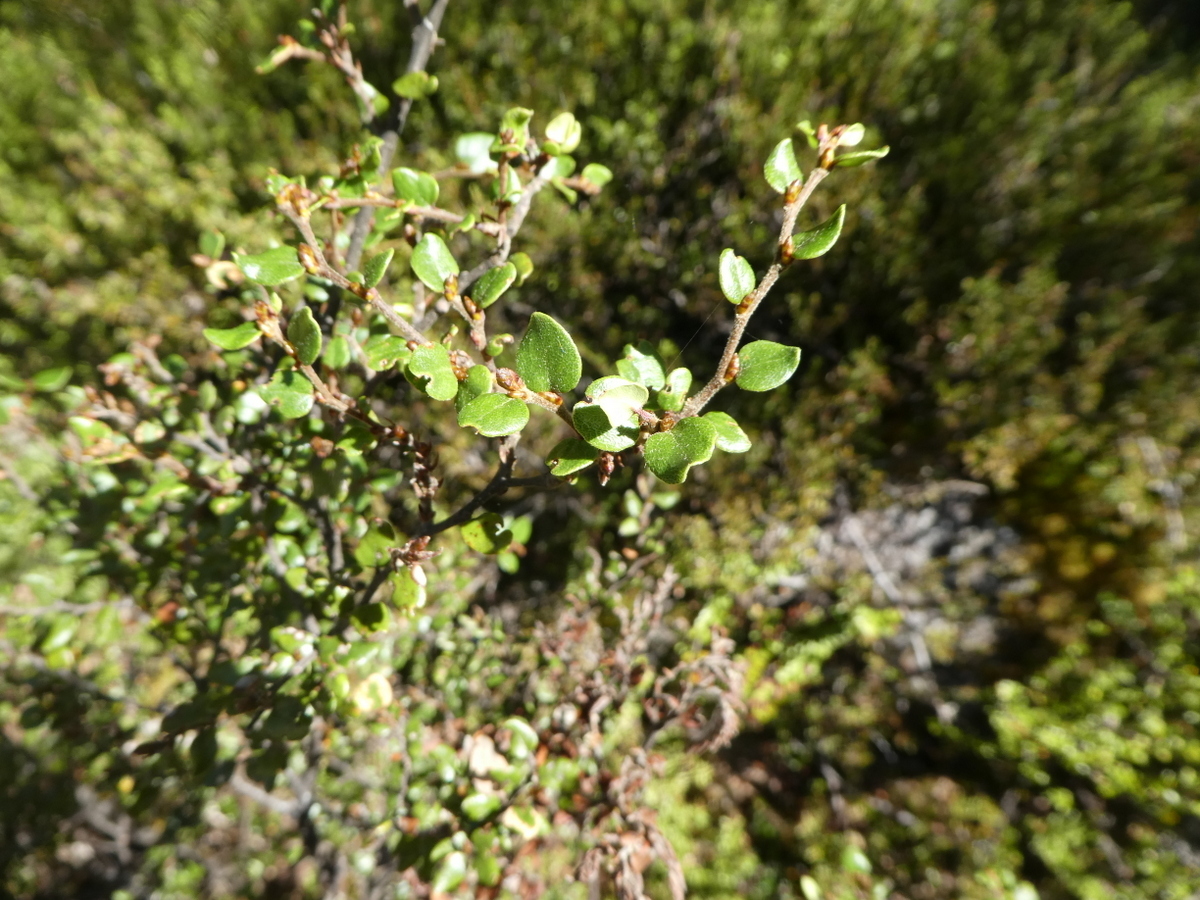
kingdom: Plantae
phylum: Tracheophyta
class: Magnoliopsida
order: Fagales
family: Nothofagaceae
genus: Nothofagus
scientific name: Nothofagus cliffortioides
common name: Mountain beech
